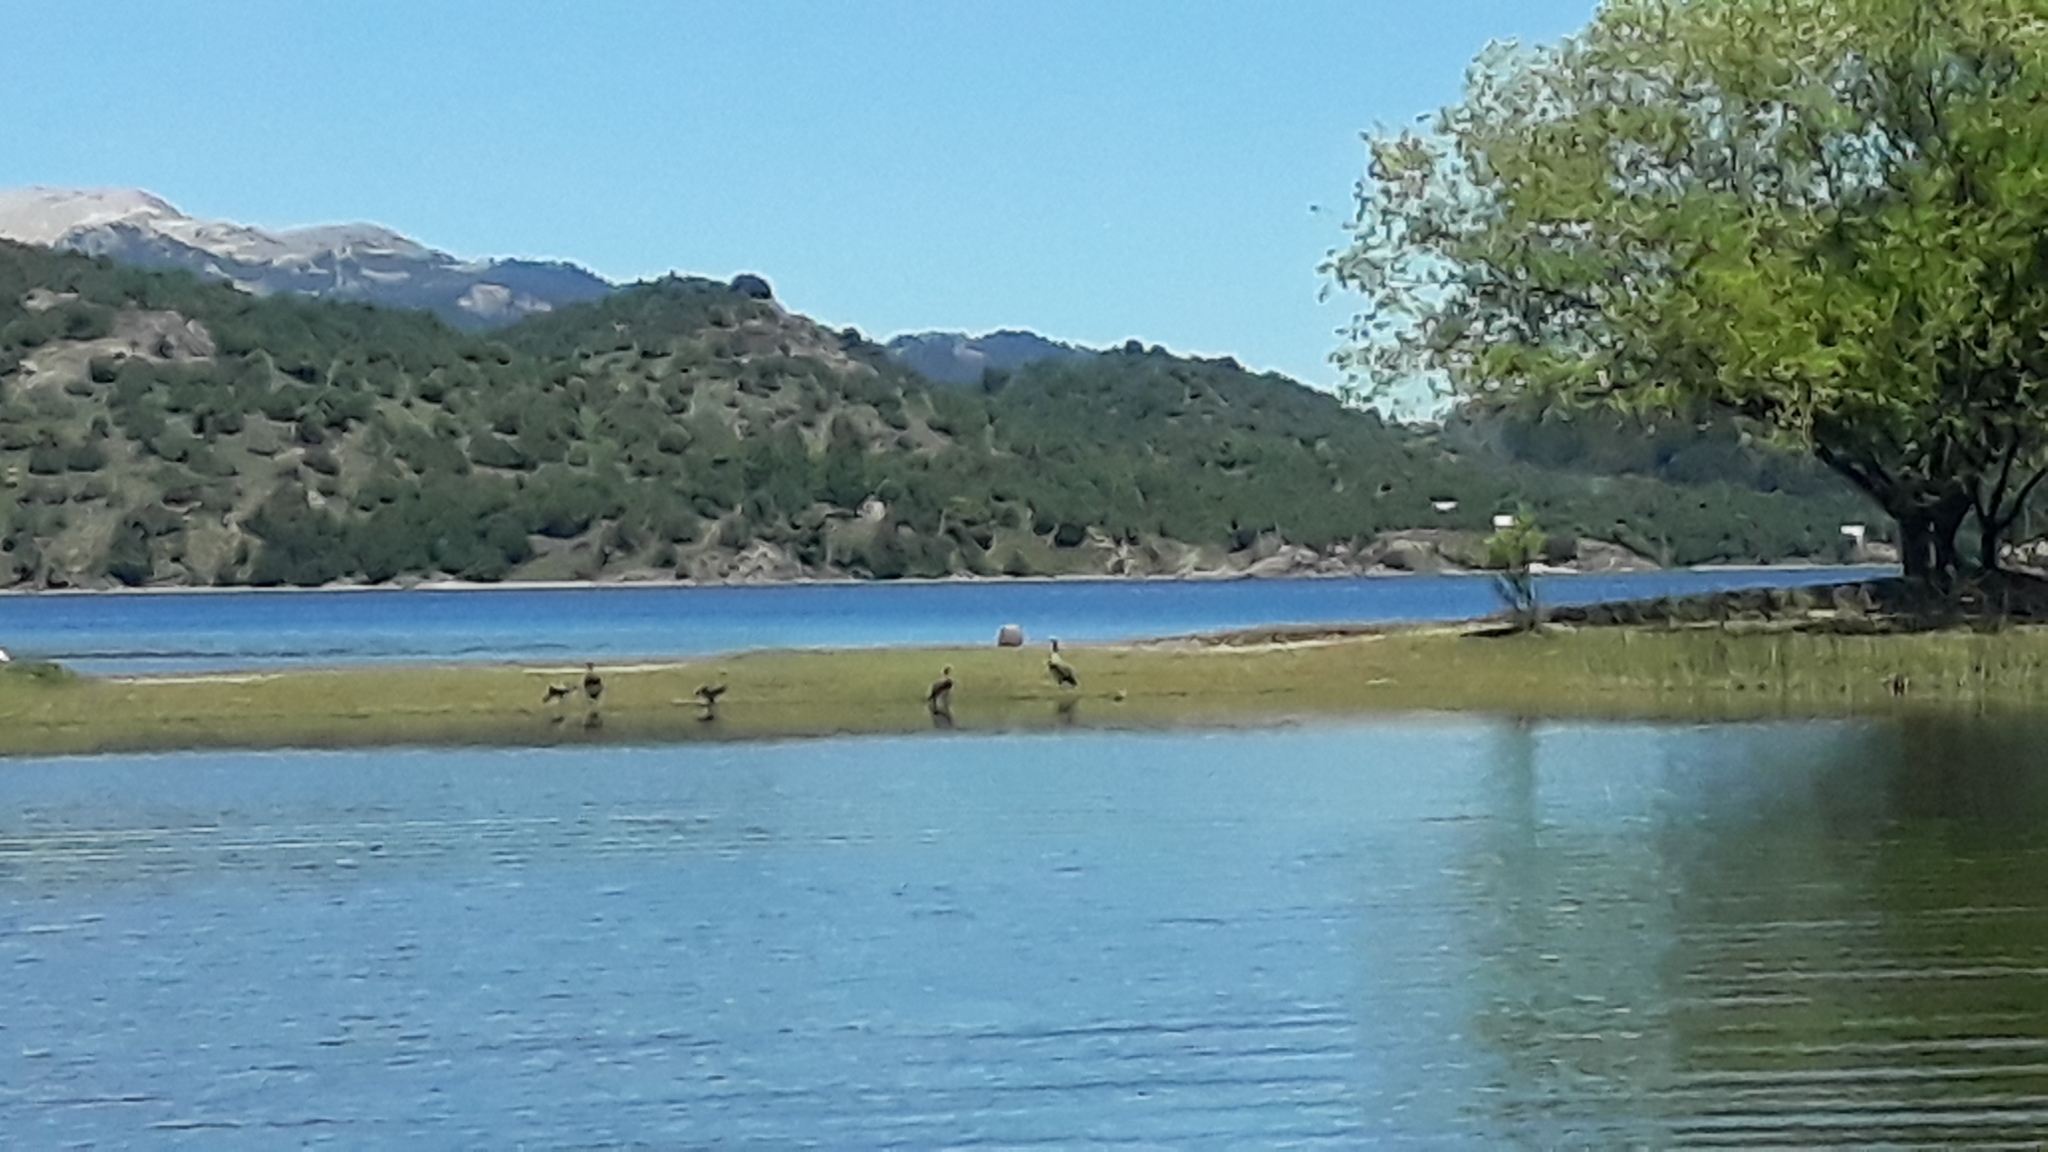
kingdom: Animalia
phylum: Chordata
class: Aves
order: Anseriformes
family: Anatidae
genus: Chloephaga
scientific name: Chloephaga poliocephala
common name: Ashy-headed goose
